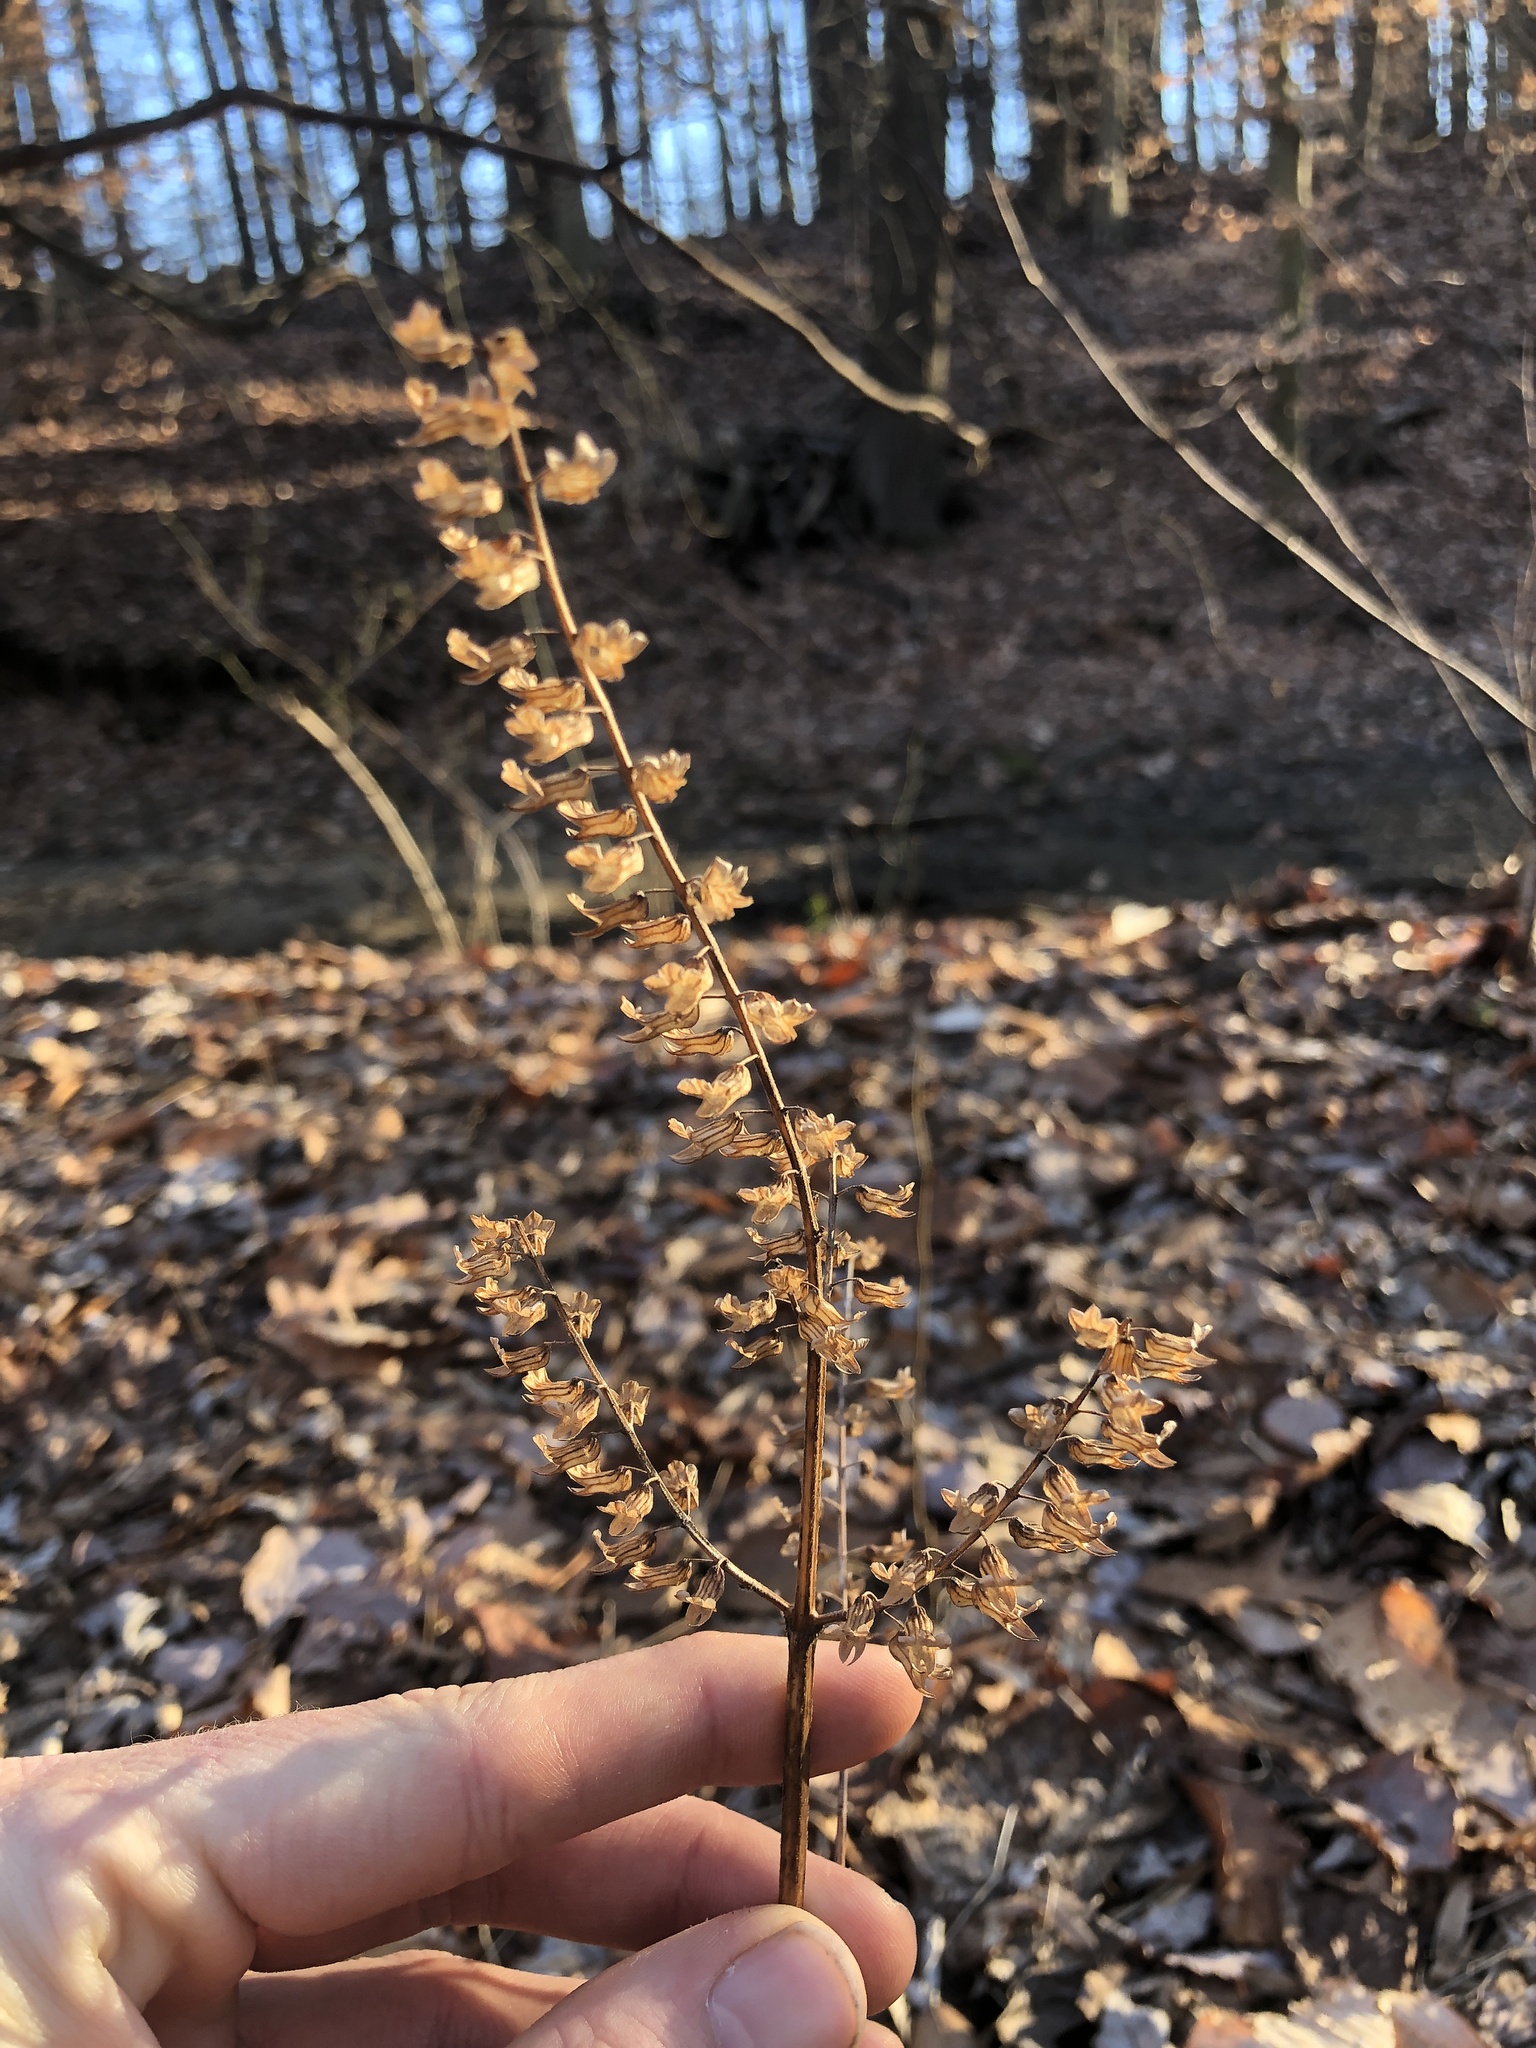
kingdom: Plantae
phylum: Tracheophyta
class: Magnoliopsida
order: Lamiales
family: Lamiaceae
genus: Perilla
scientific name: Perilla frutescens
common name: Perilla
